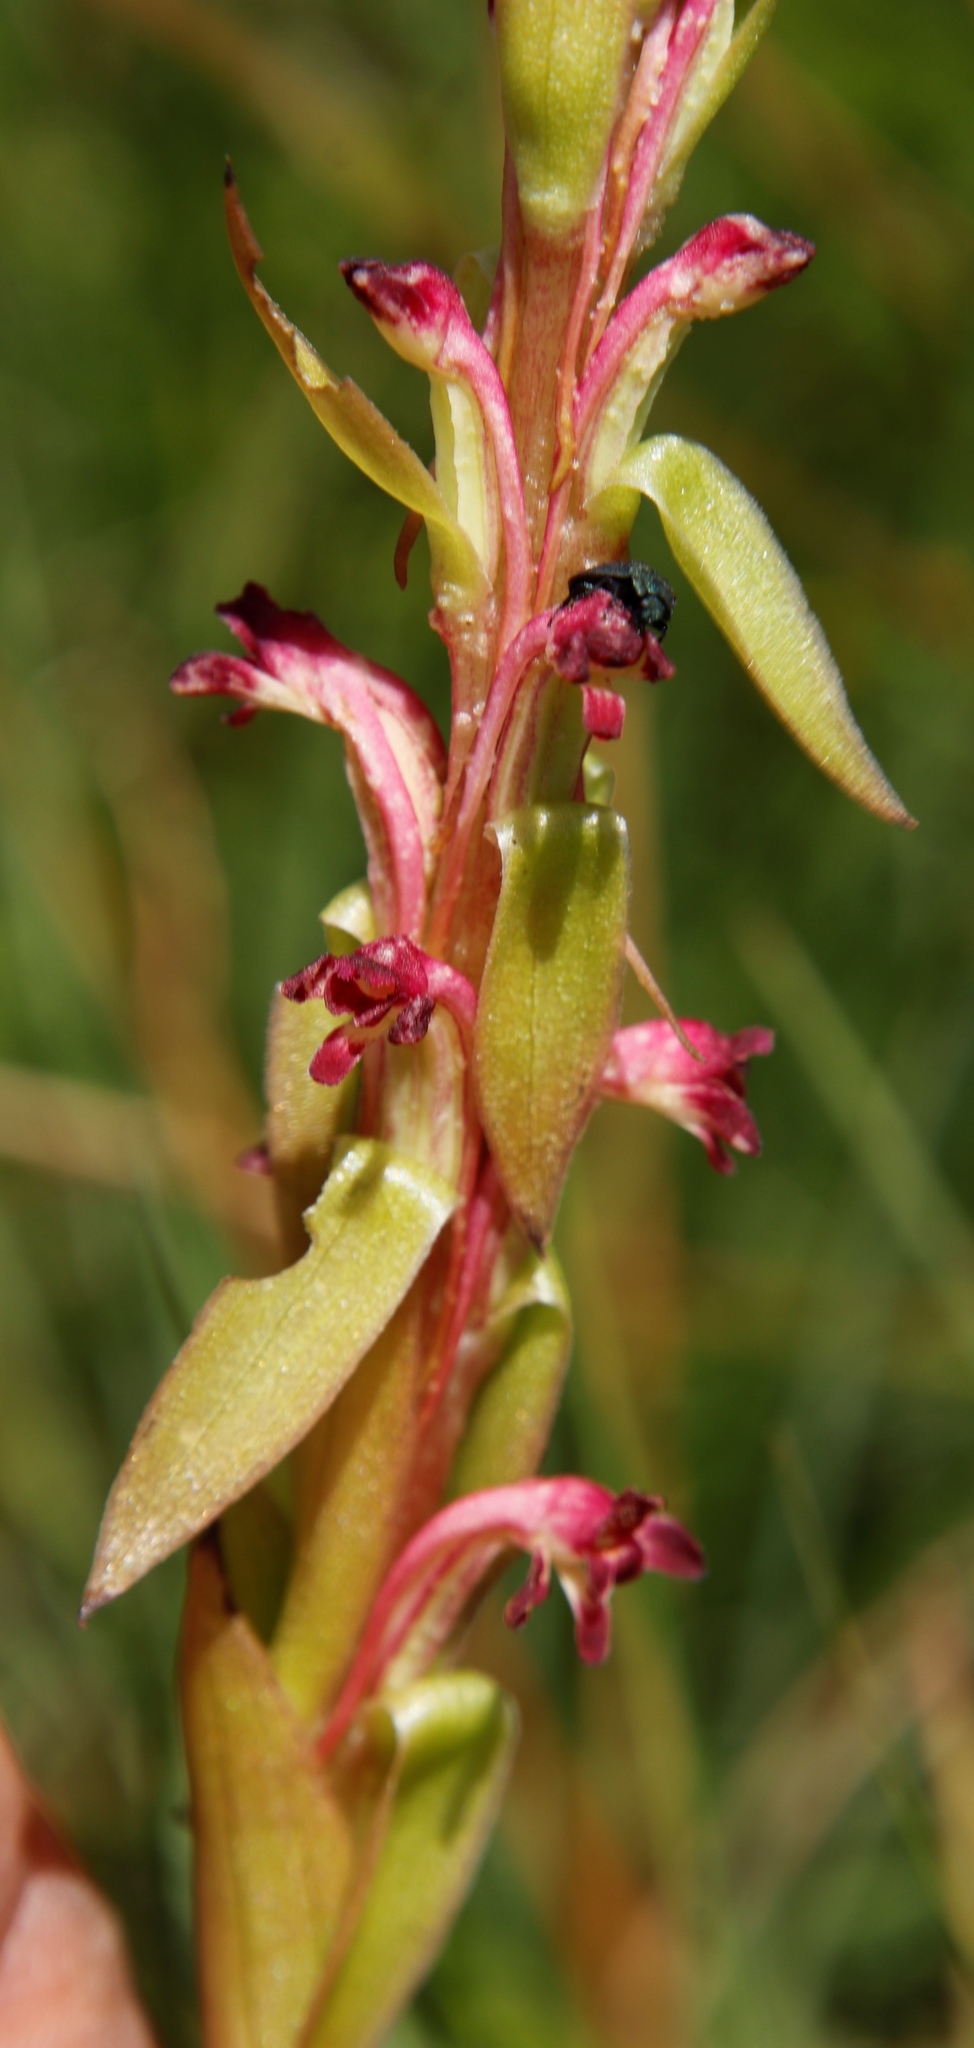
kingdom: Plantae
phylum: Tracheophyta
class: Liliopsida
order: Asparagales
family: Orchidaceae
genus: Satyrium
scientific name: Satyrium longicauda
